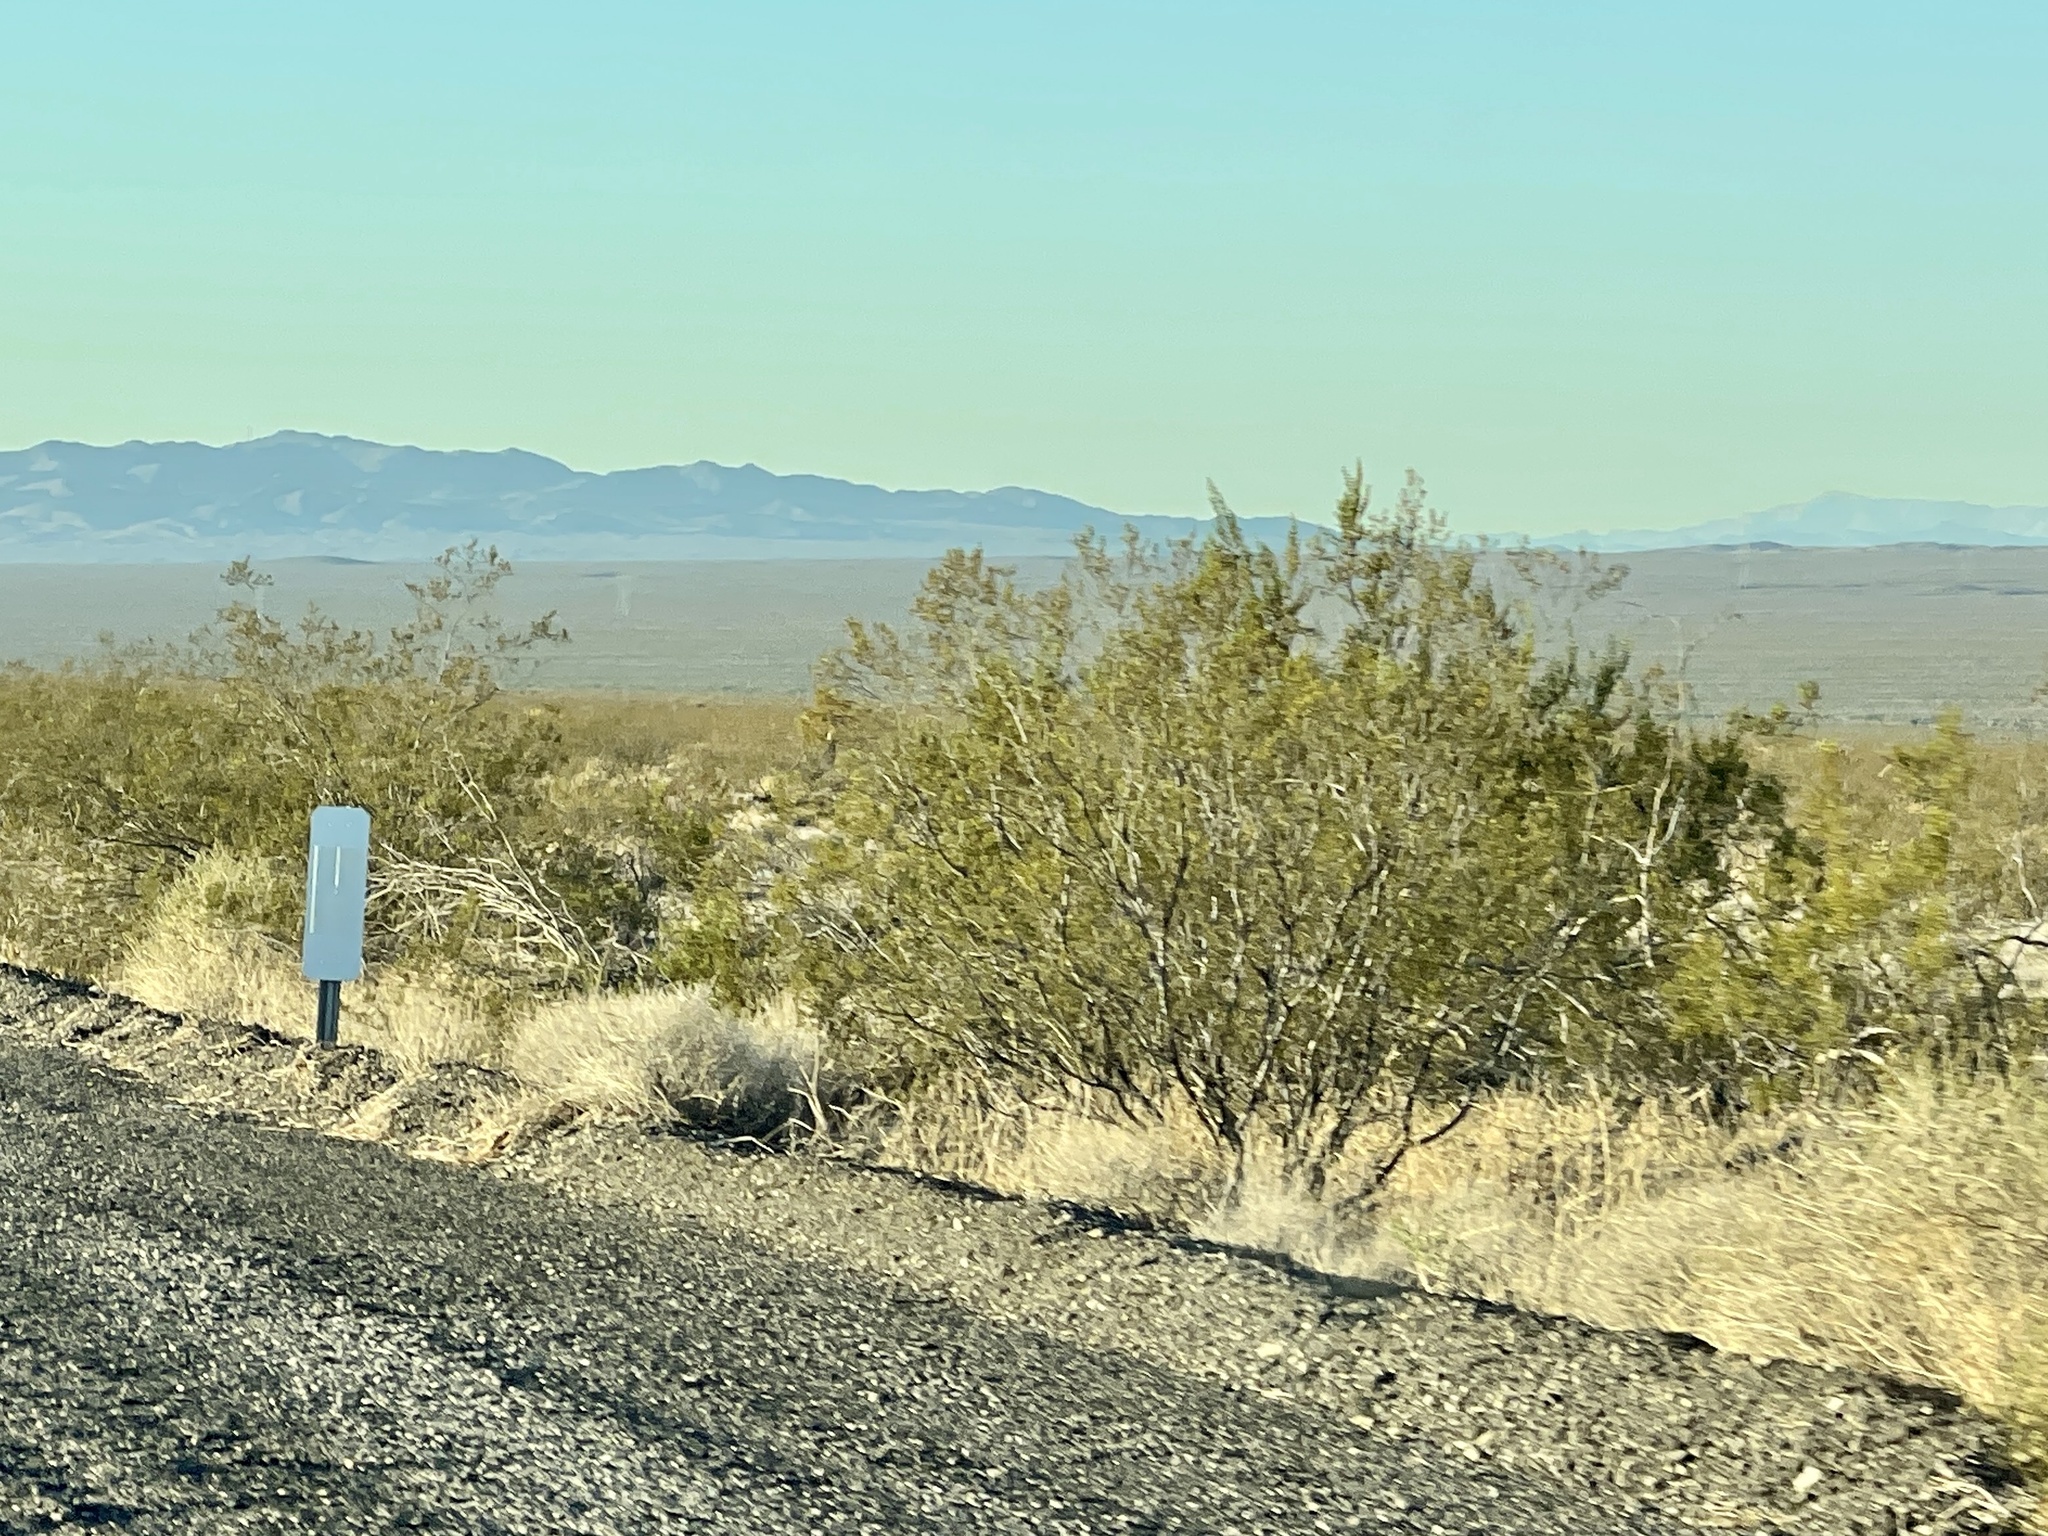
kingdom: Plantae
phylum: Tracheophyta
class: Magnoliopsida
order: Zygophyllales
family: Zygophyllaceae
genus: Larrea
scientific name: Larrea tridentata
